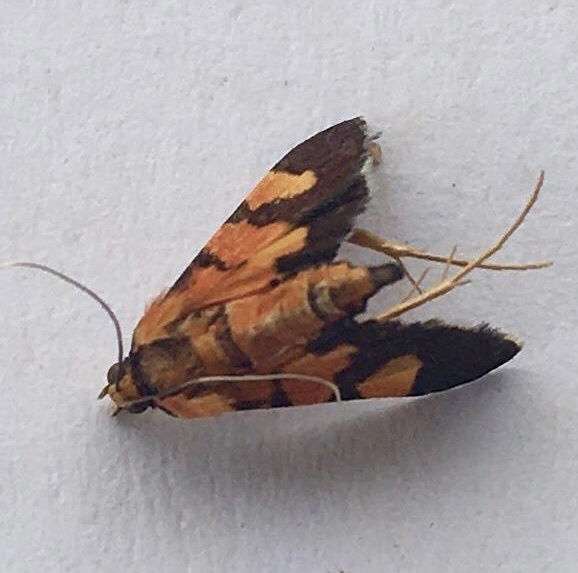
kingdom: Animalia
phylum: Arthropoda
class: Insecta
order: Lepidoptera
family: Crambidae
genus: Aethaloessa
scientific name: Aethaloessa floridalis
